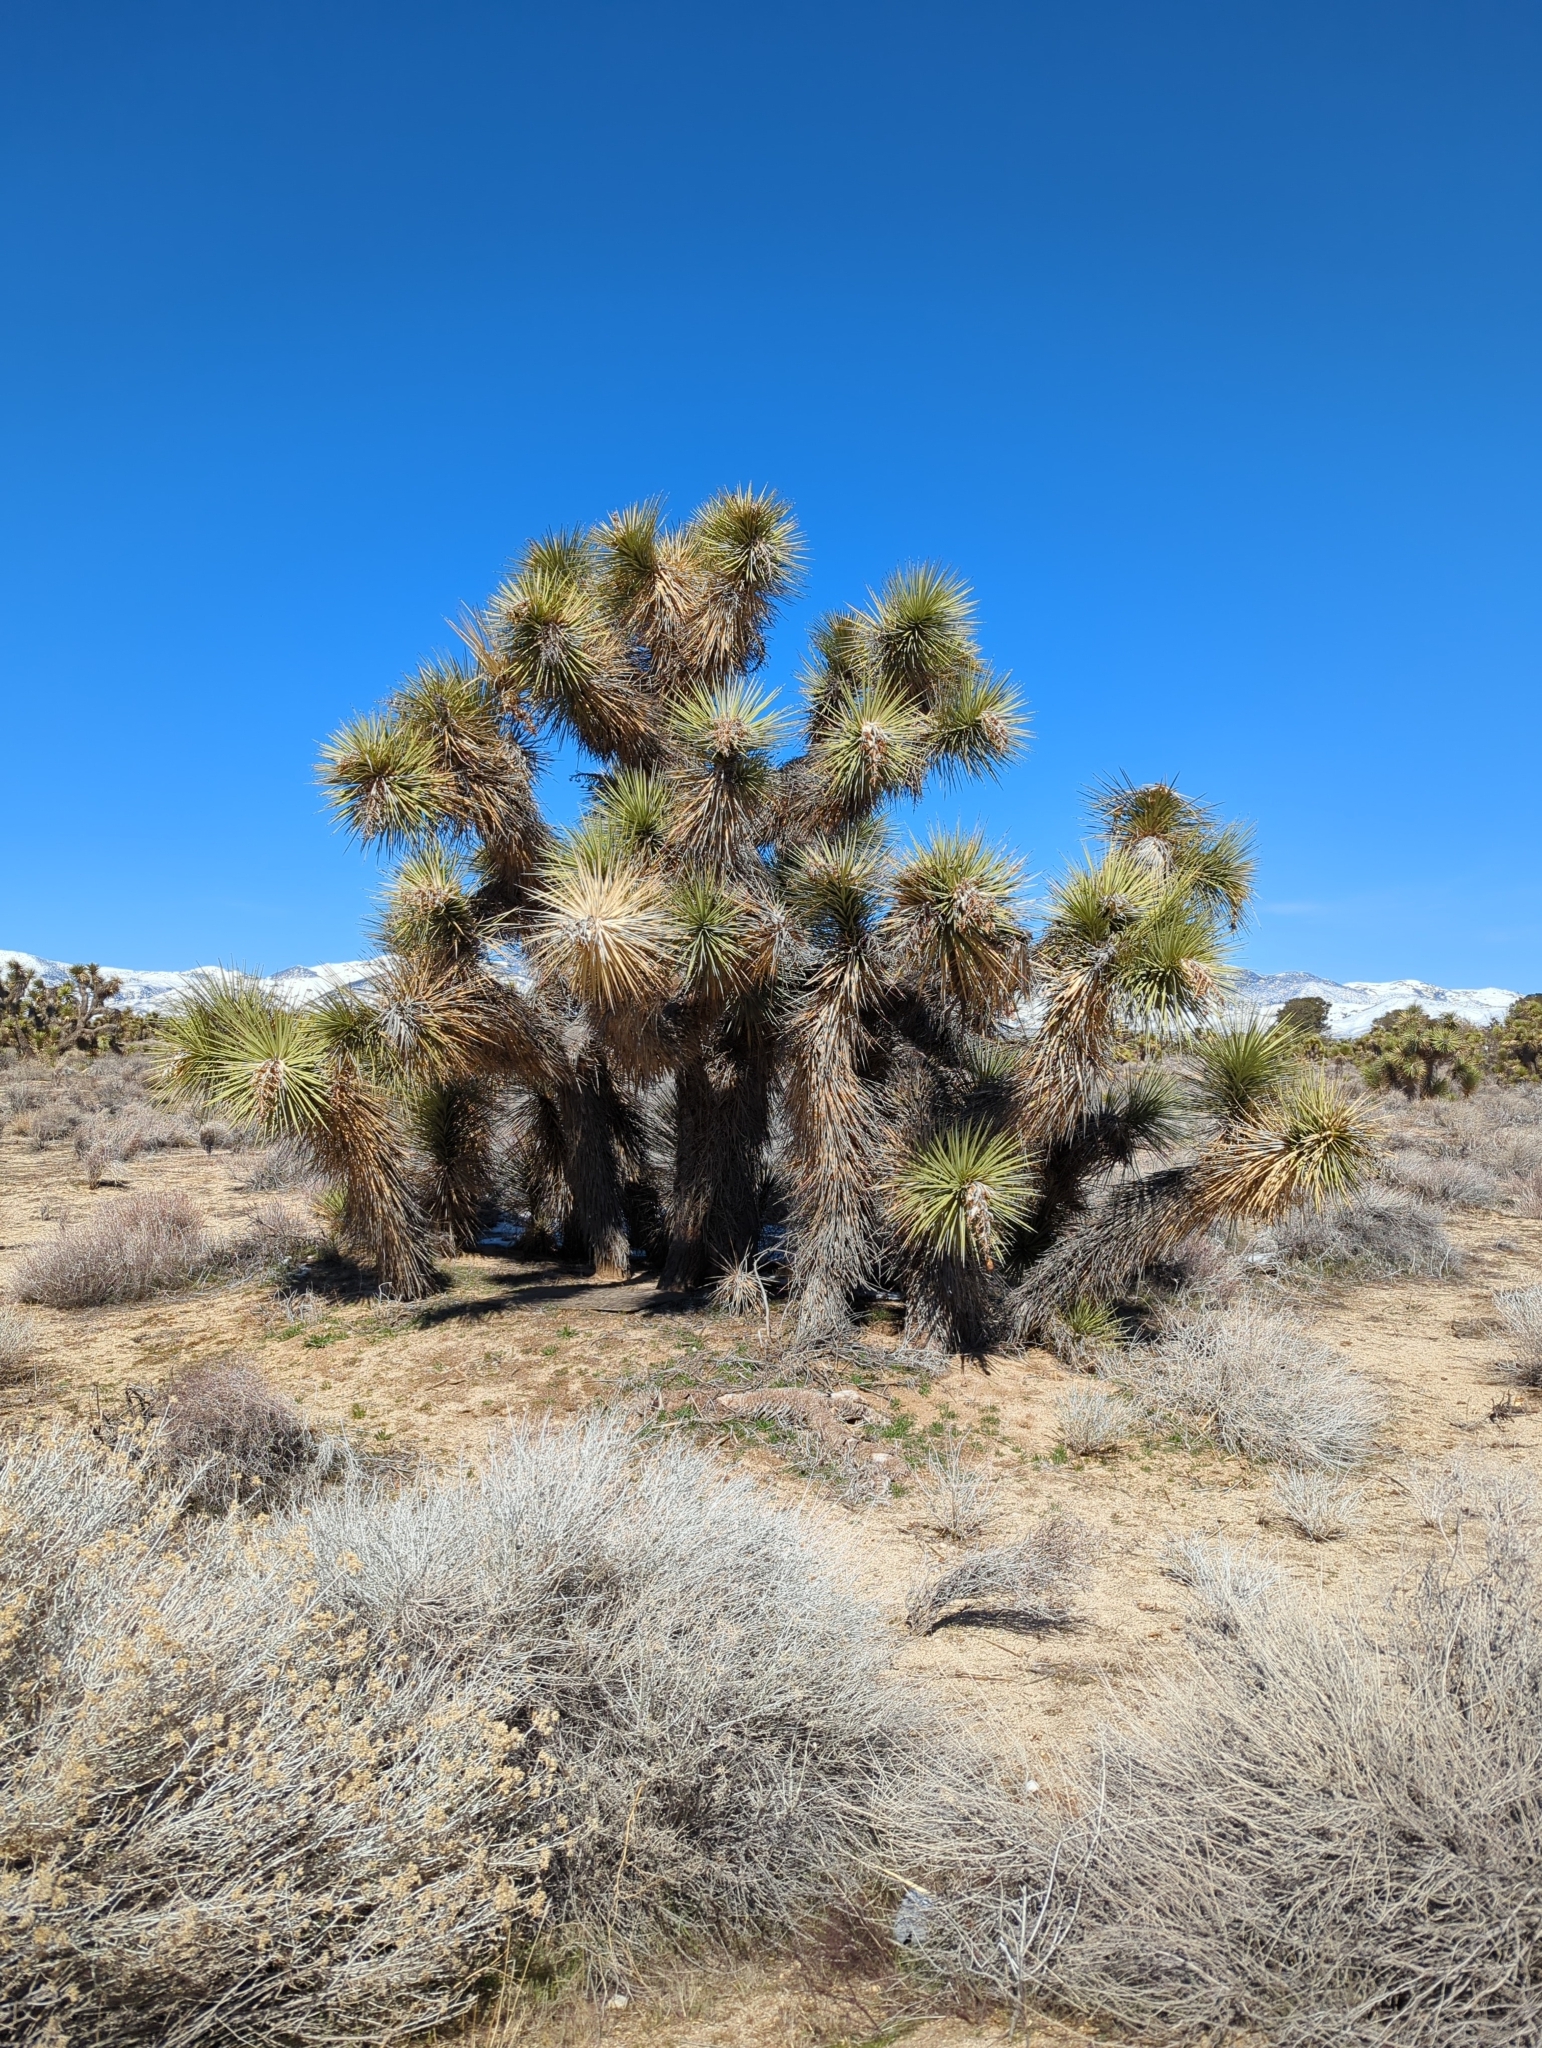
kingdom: Plantae
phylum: Tracheophyta
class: Liliopsida
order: Asparagales
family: Asparagaceae
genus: Yucca
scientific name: Yucca brevifolia
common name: Joshua tree
